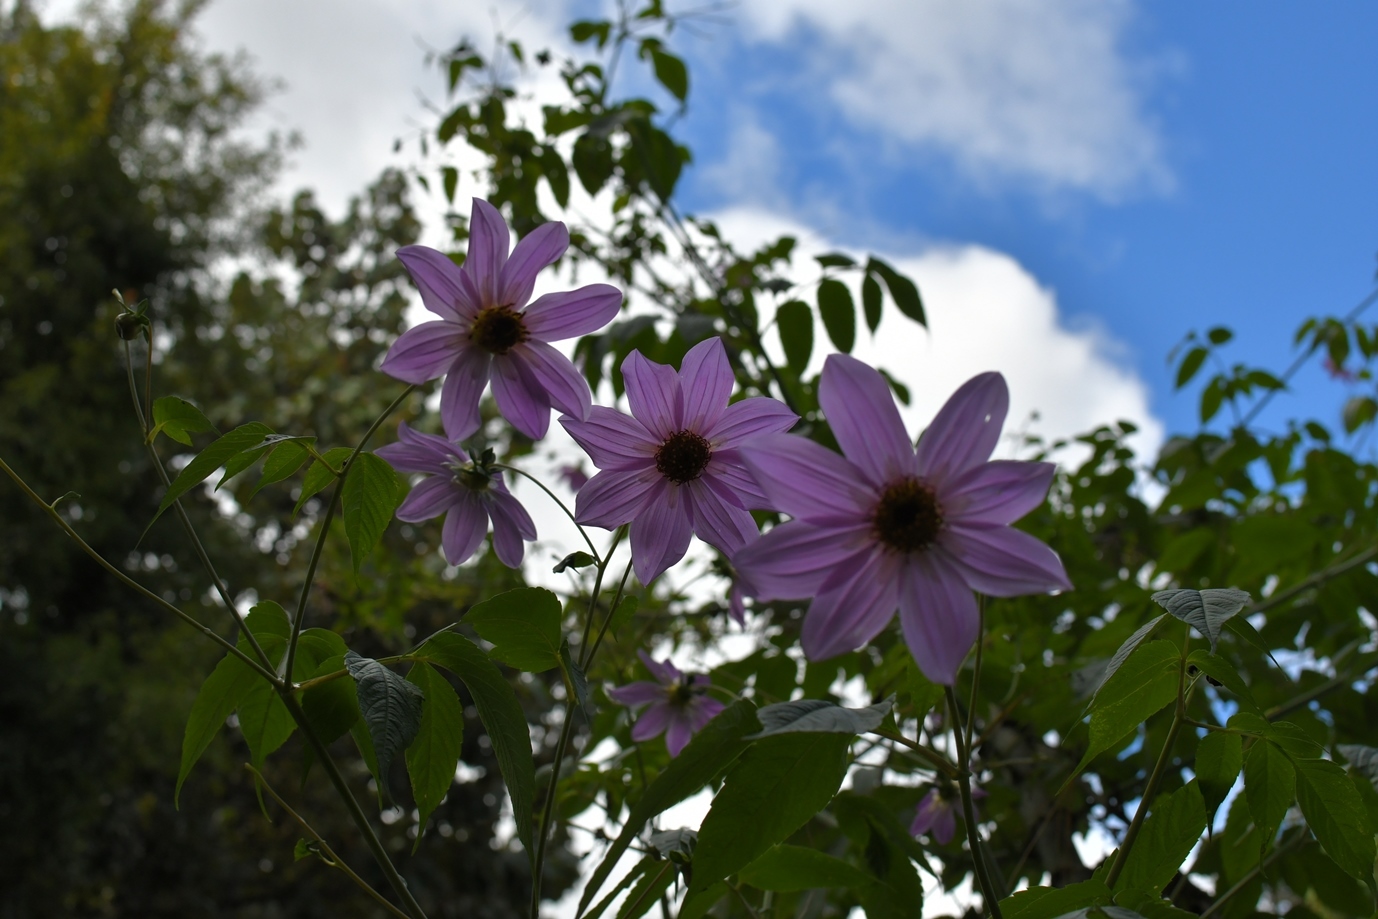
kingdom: Plantae
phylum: Tracheophyta
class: Magnoliopsida
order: Asterales
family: Asteraceae
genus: Dahlia
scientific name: Dahlia imperialis
